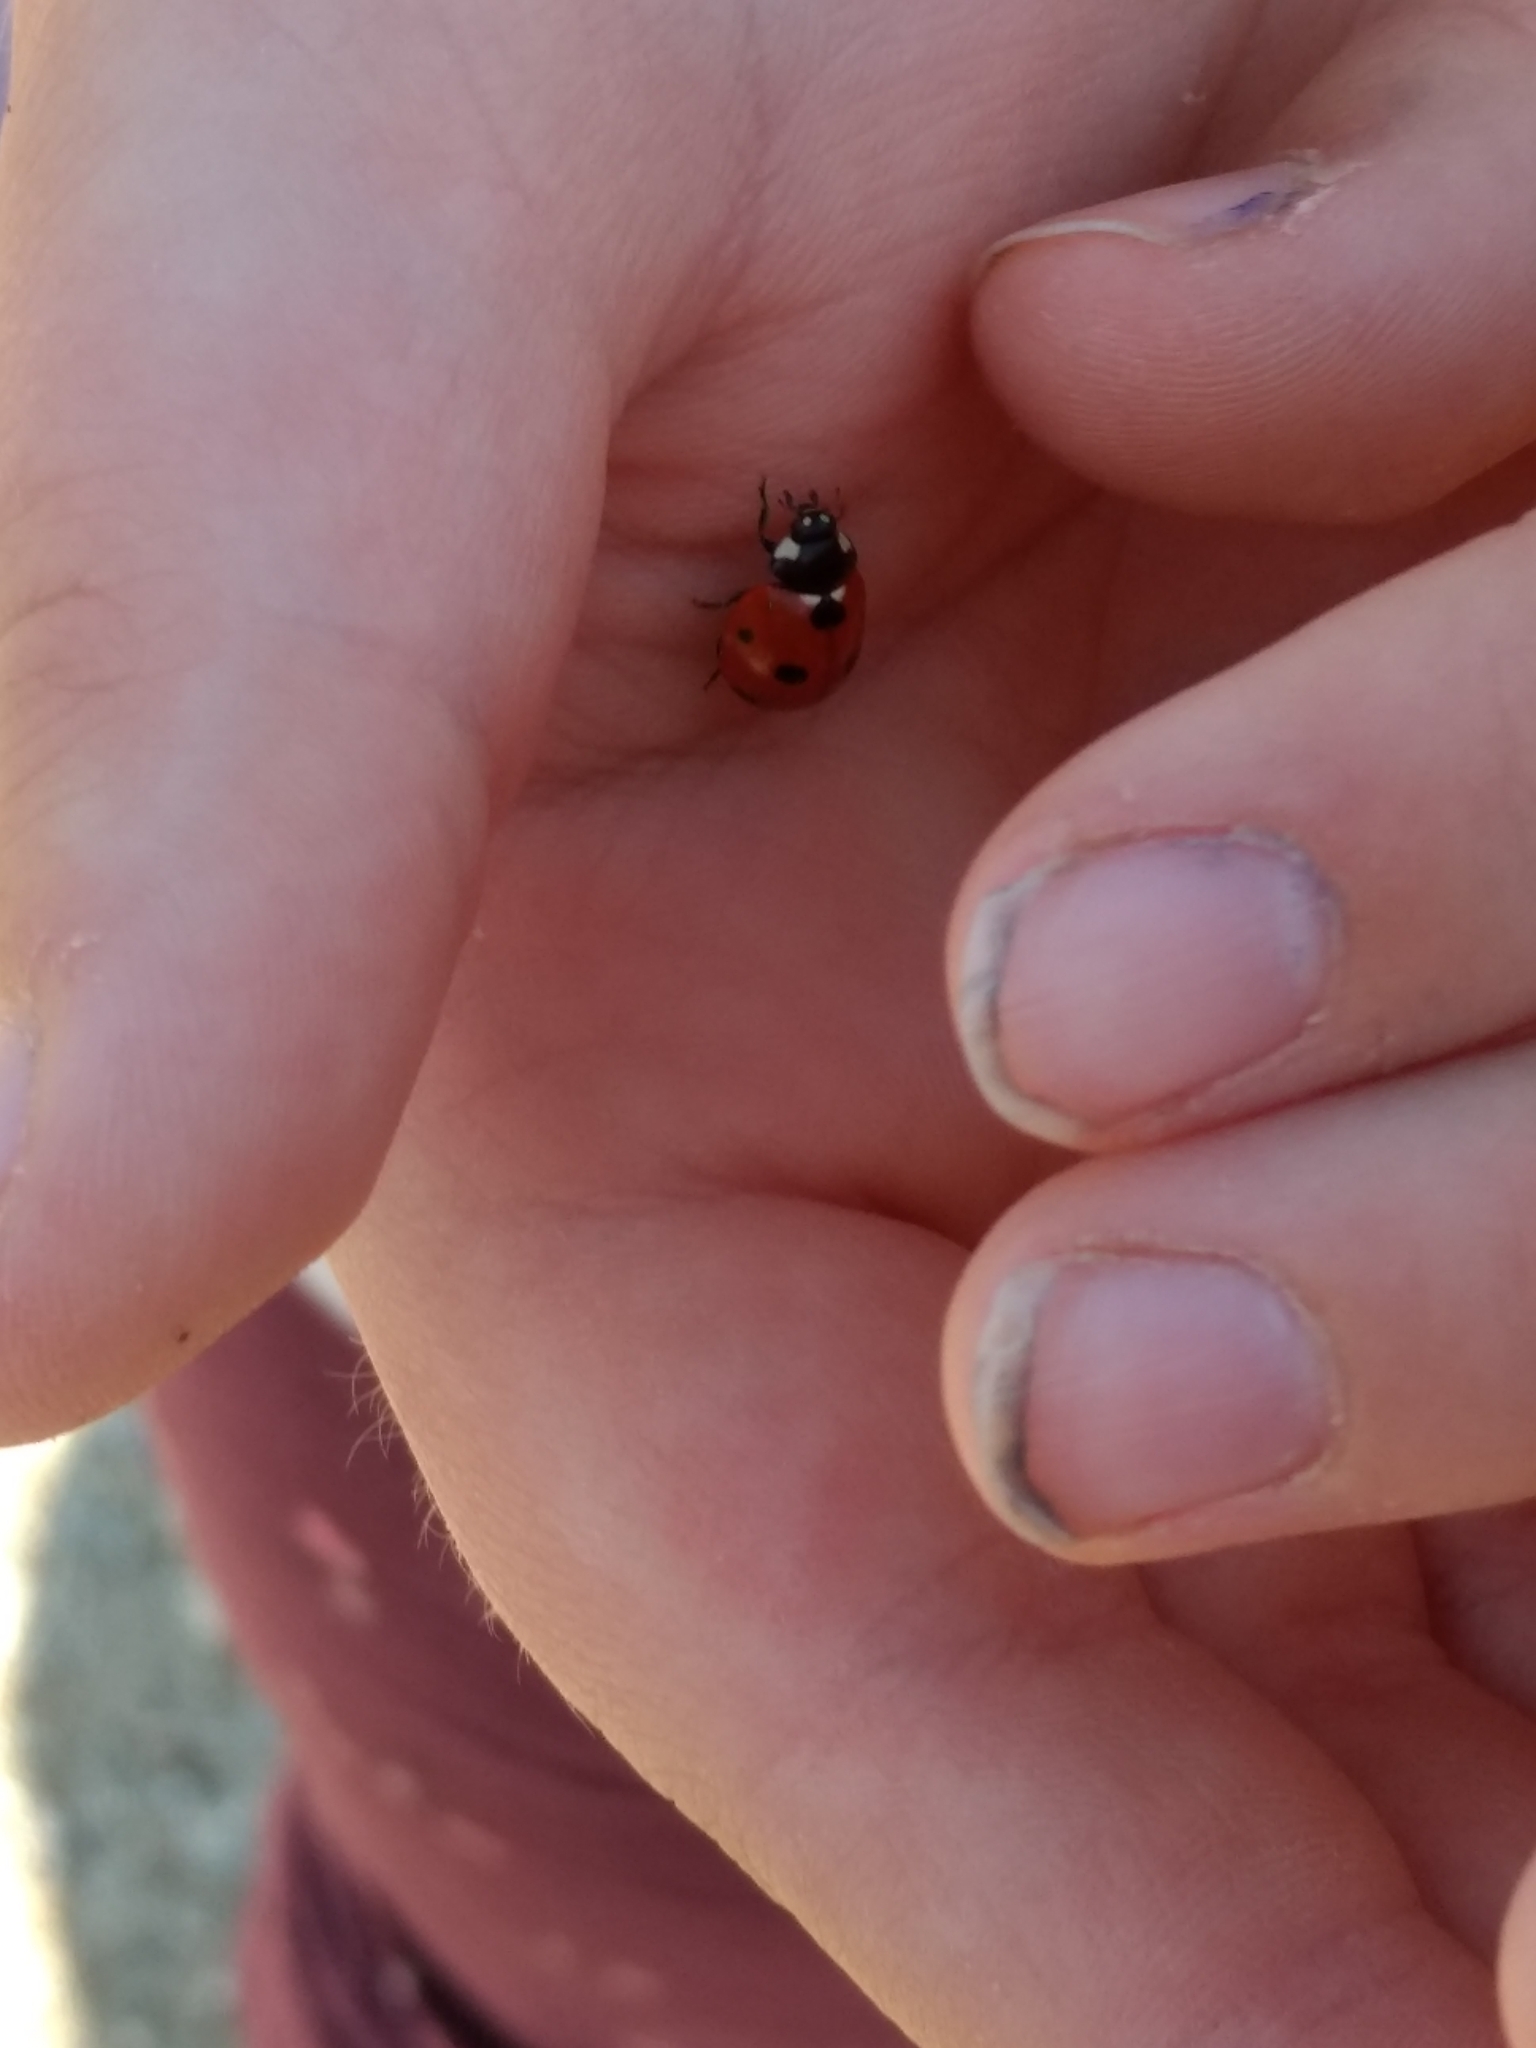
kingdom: Animalia
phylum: Arthropoda
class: Insecta
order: Coleoptera
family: Coccinellidae
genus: Coccinella
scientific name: Coccinella septempunctata
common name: Sevenspotted lady beetle
